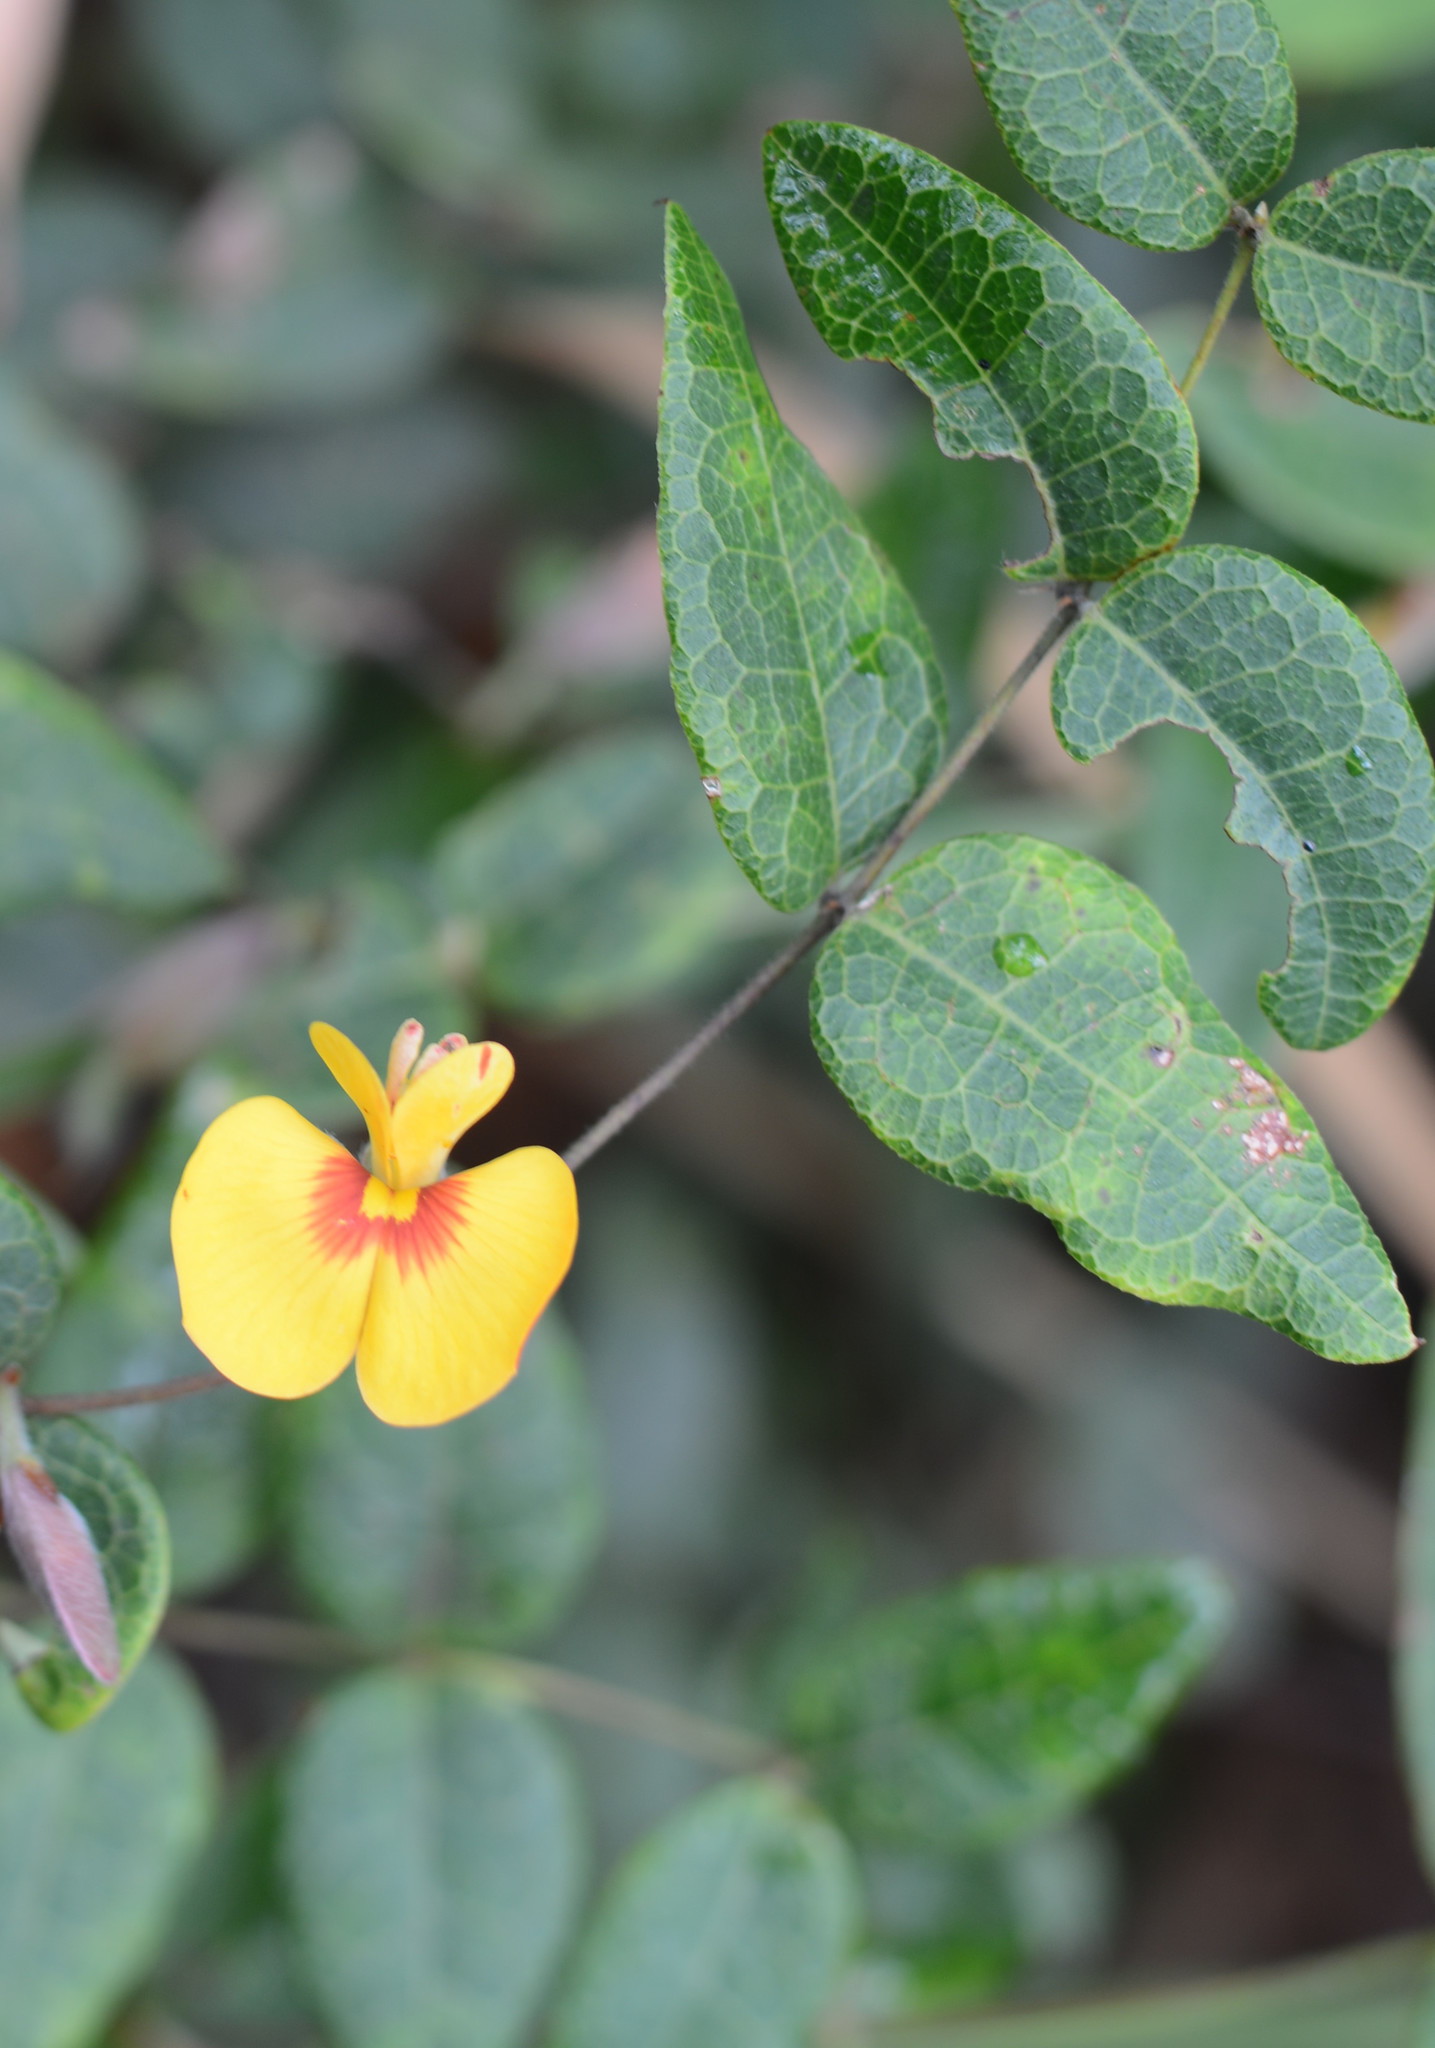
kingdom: Plantae
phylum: Tracheophyta
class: Magnoliopsida
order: Fabales
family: Fabaceae
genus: Platylobium
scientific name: Platylobium formosum
